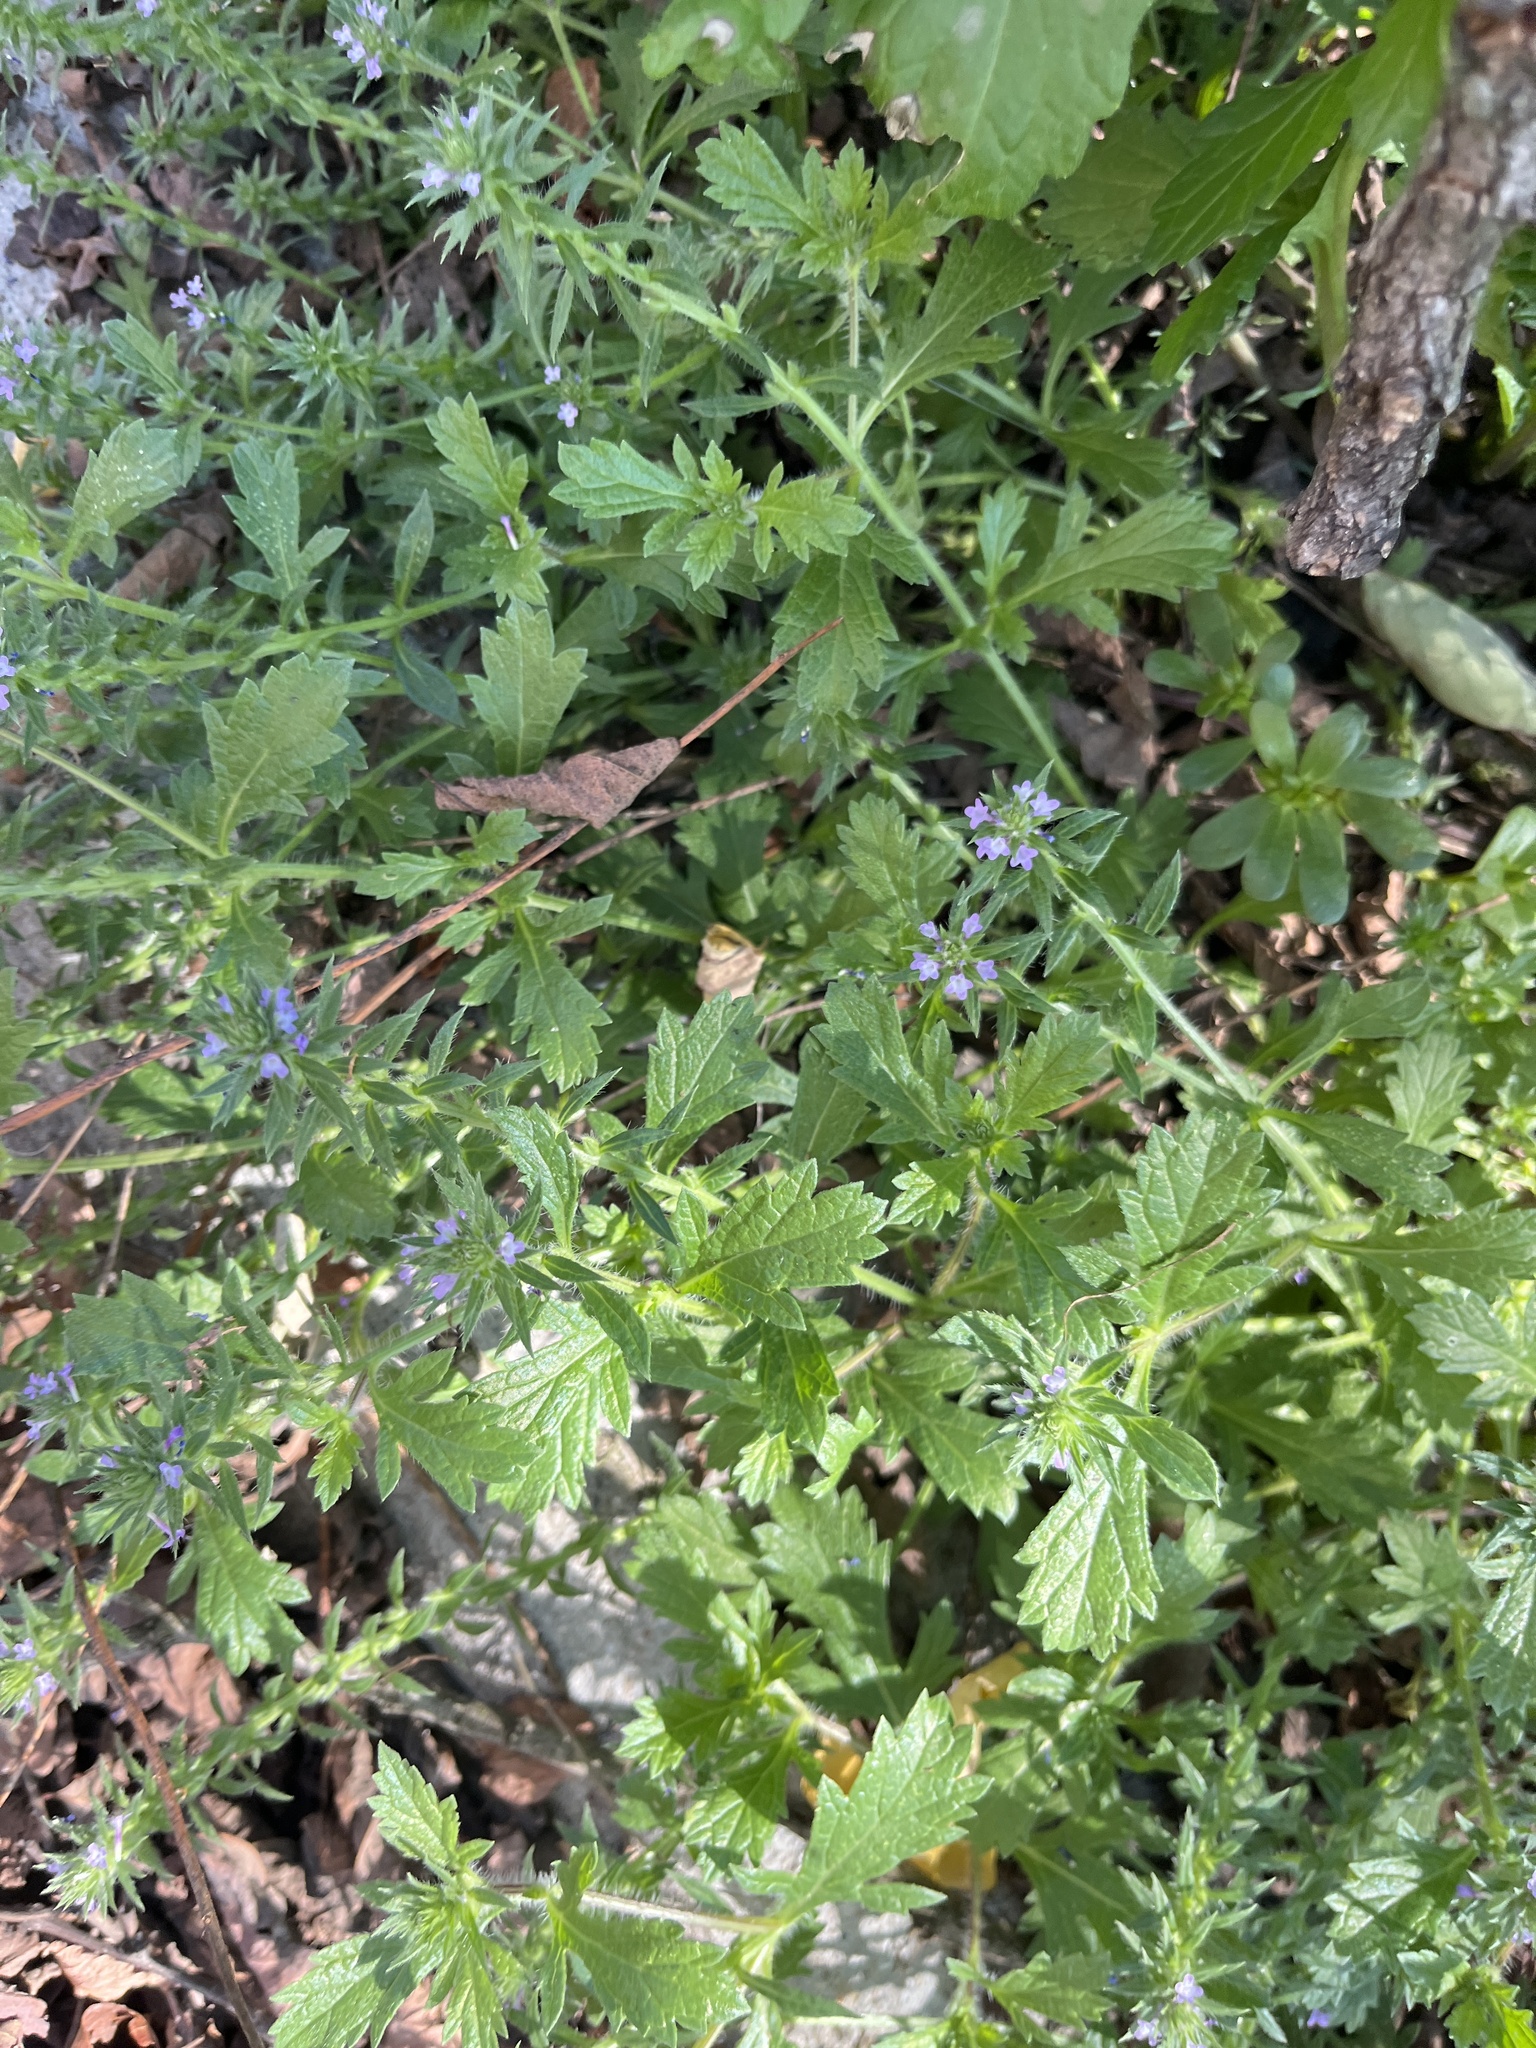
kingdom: Plantae
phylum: Tracheophyta
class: Magnoliopsida
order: Lamiales
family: Verbenaceae
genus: Verbena
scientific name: Verbena bracteata
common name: Bracted vervain
